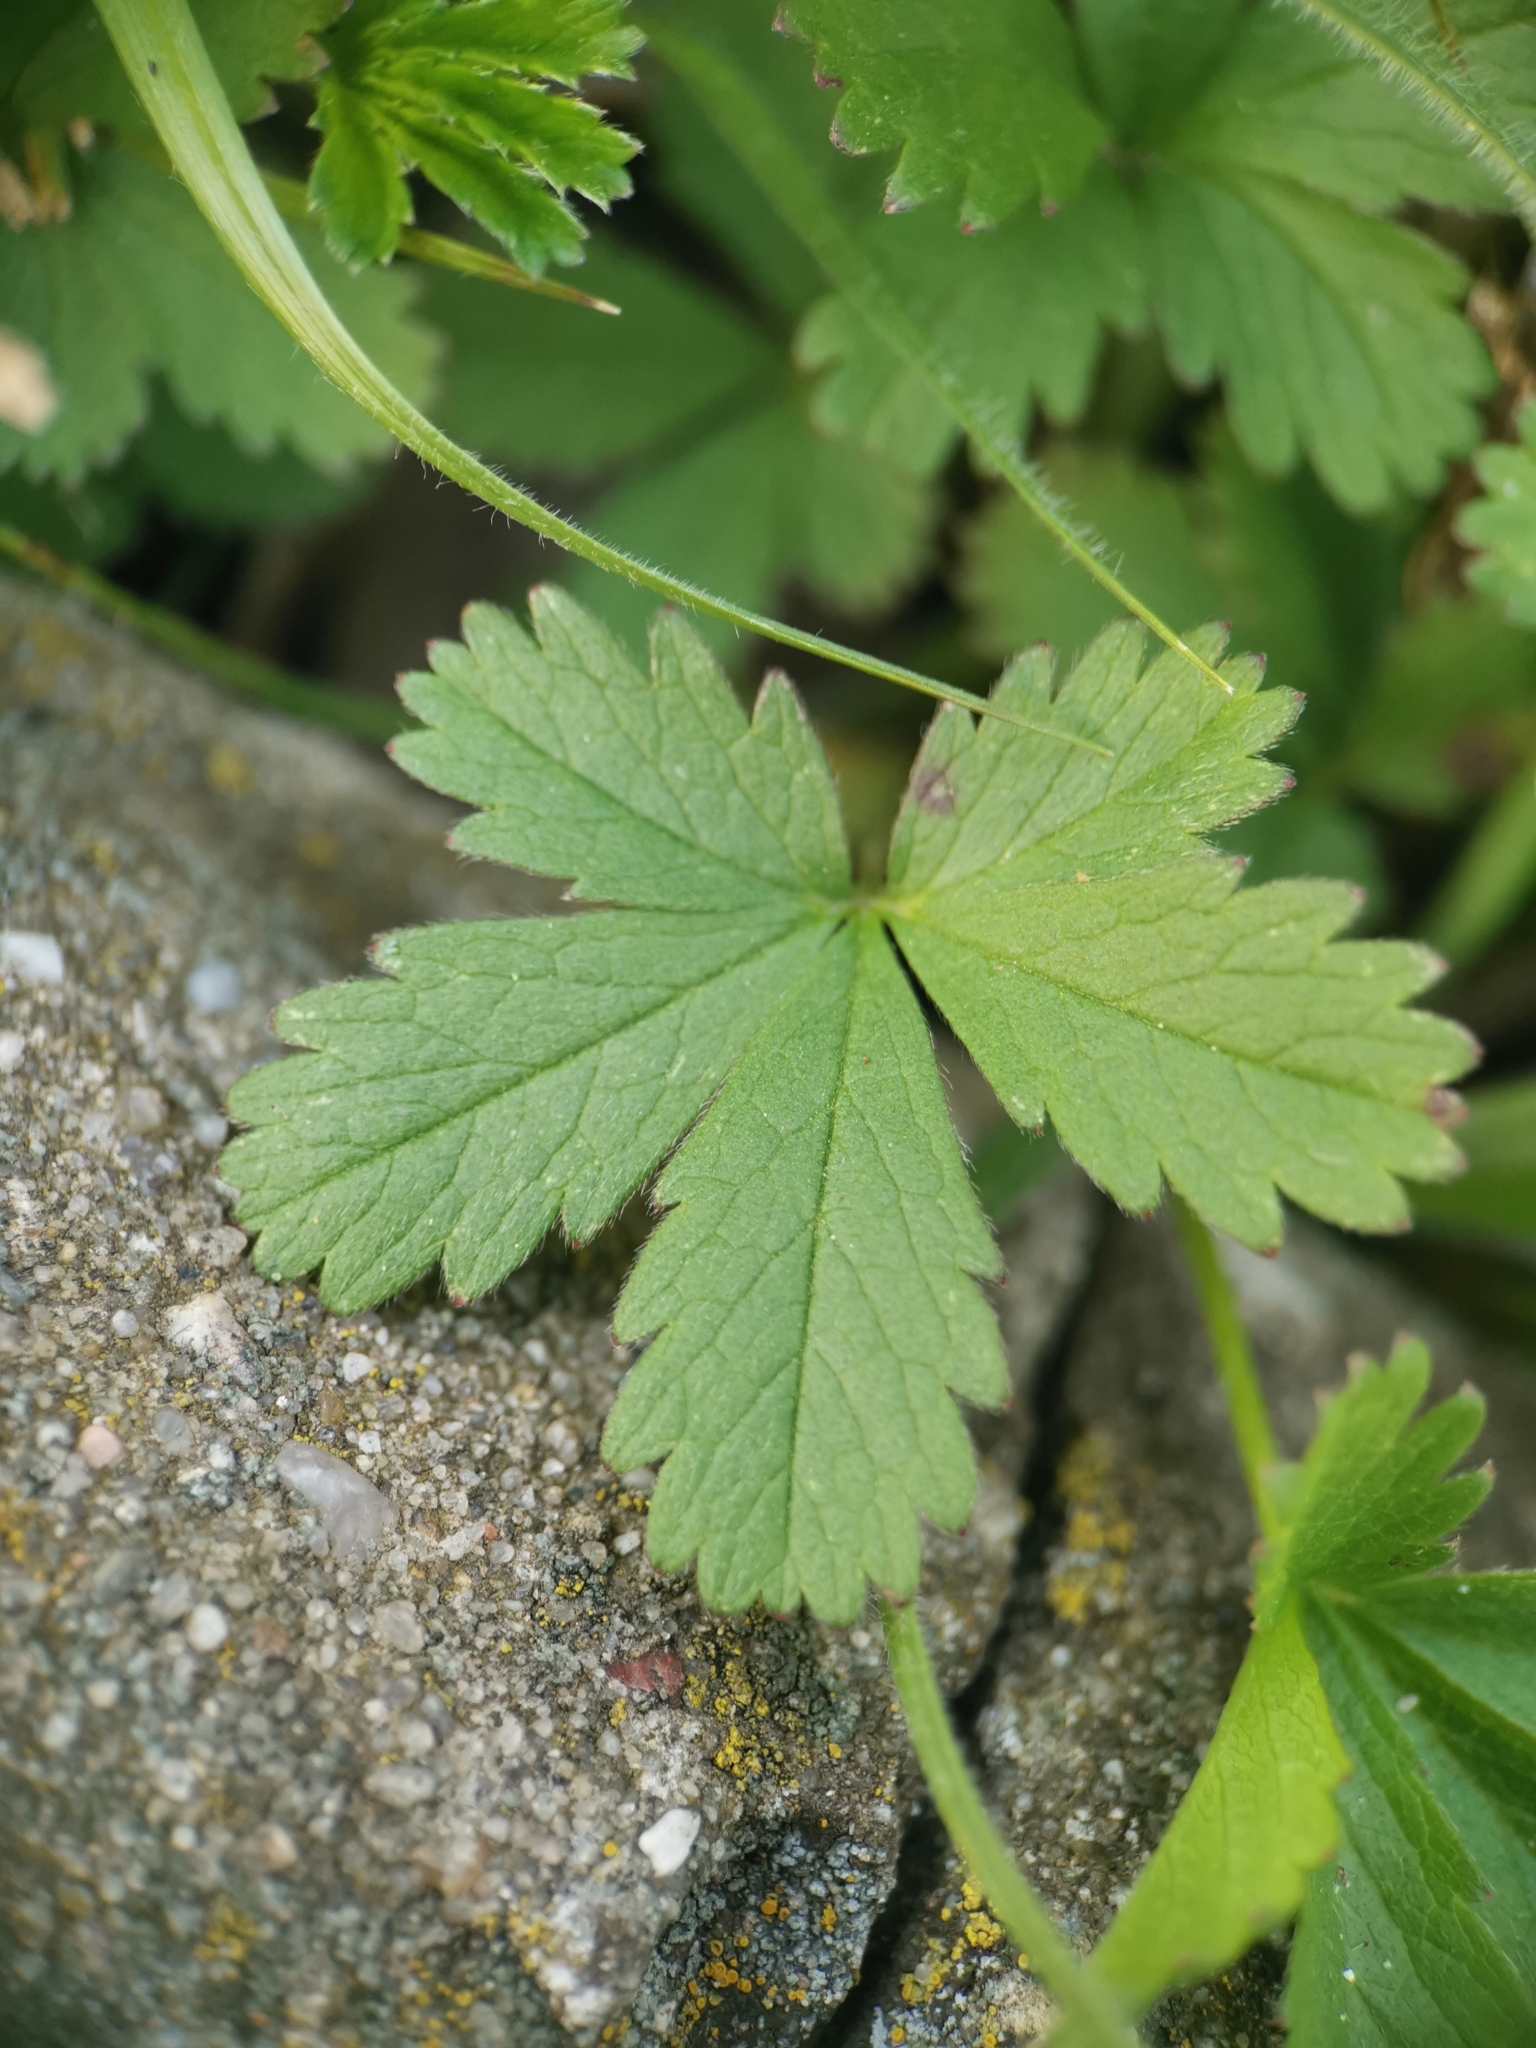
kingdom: Plantae
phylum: Tracheophyta
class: Magnoliopsida
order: Rosales
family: Rosaceae
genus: Potentilla
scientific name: Potentilla reptans
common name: Creeping cinquefoil
